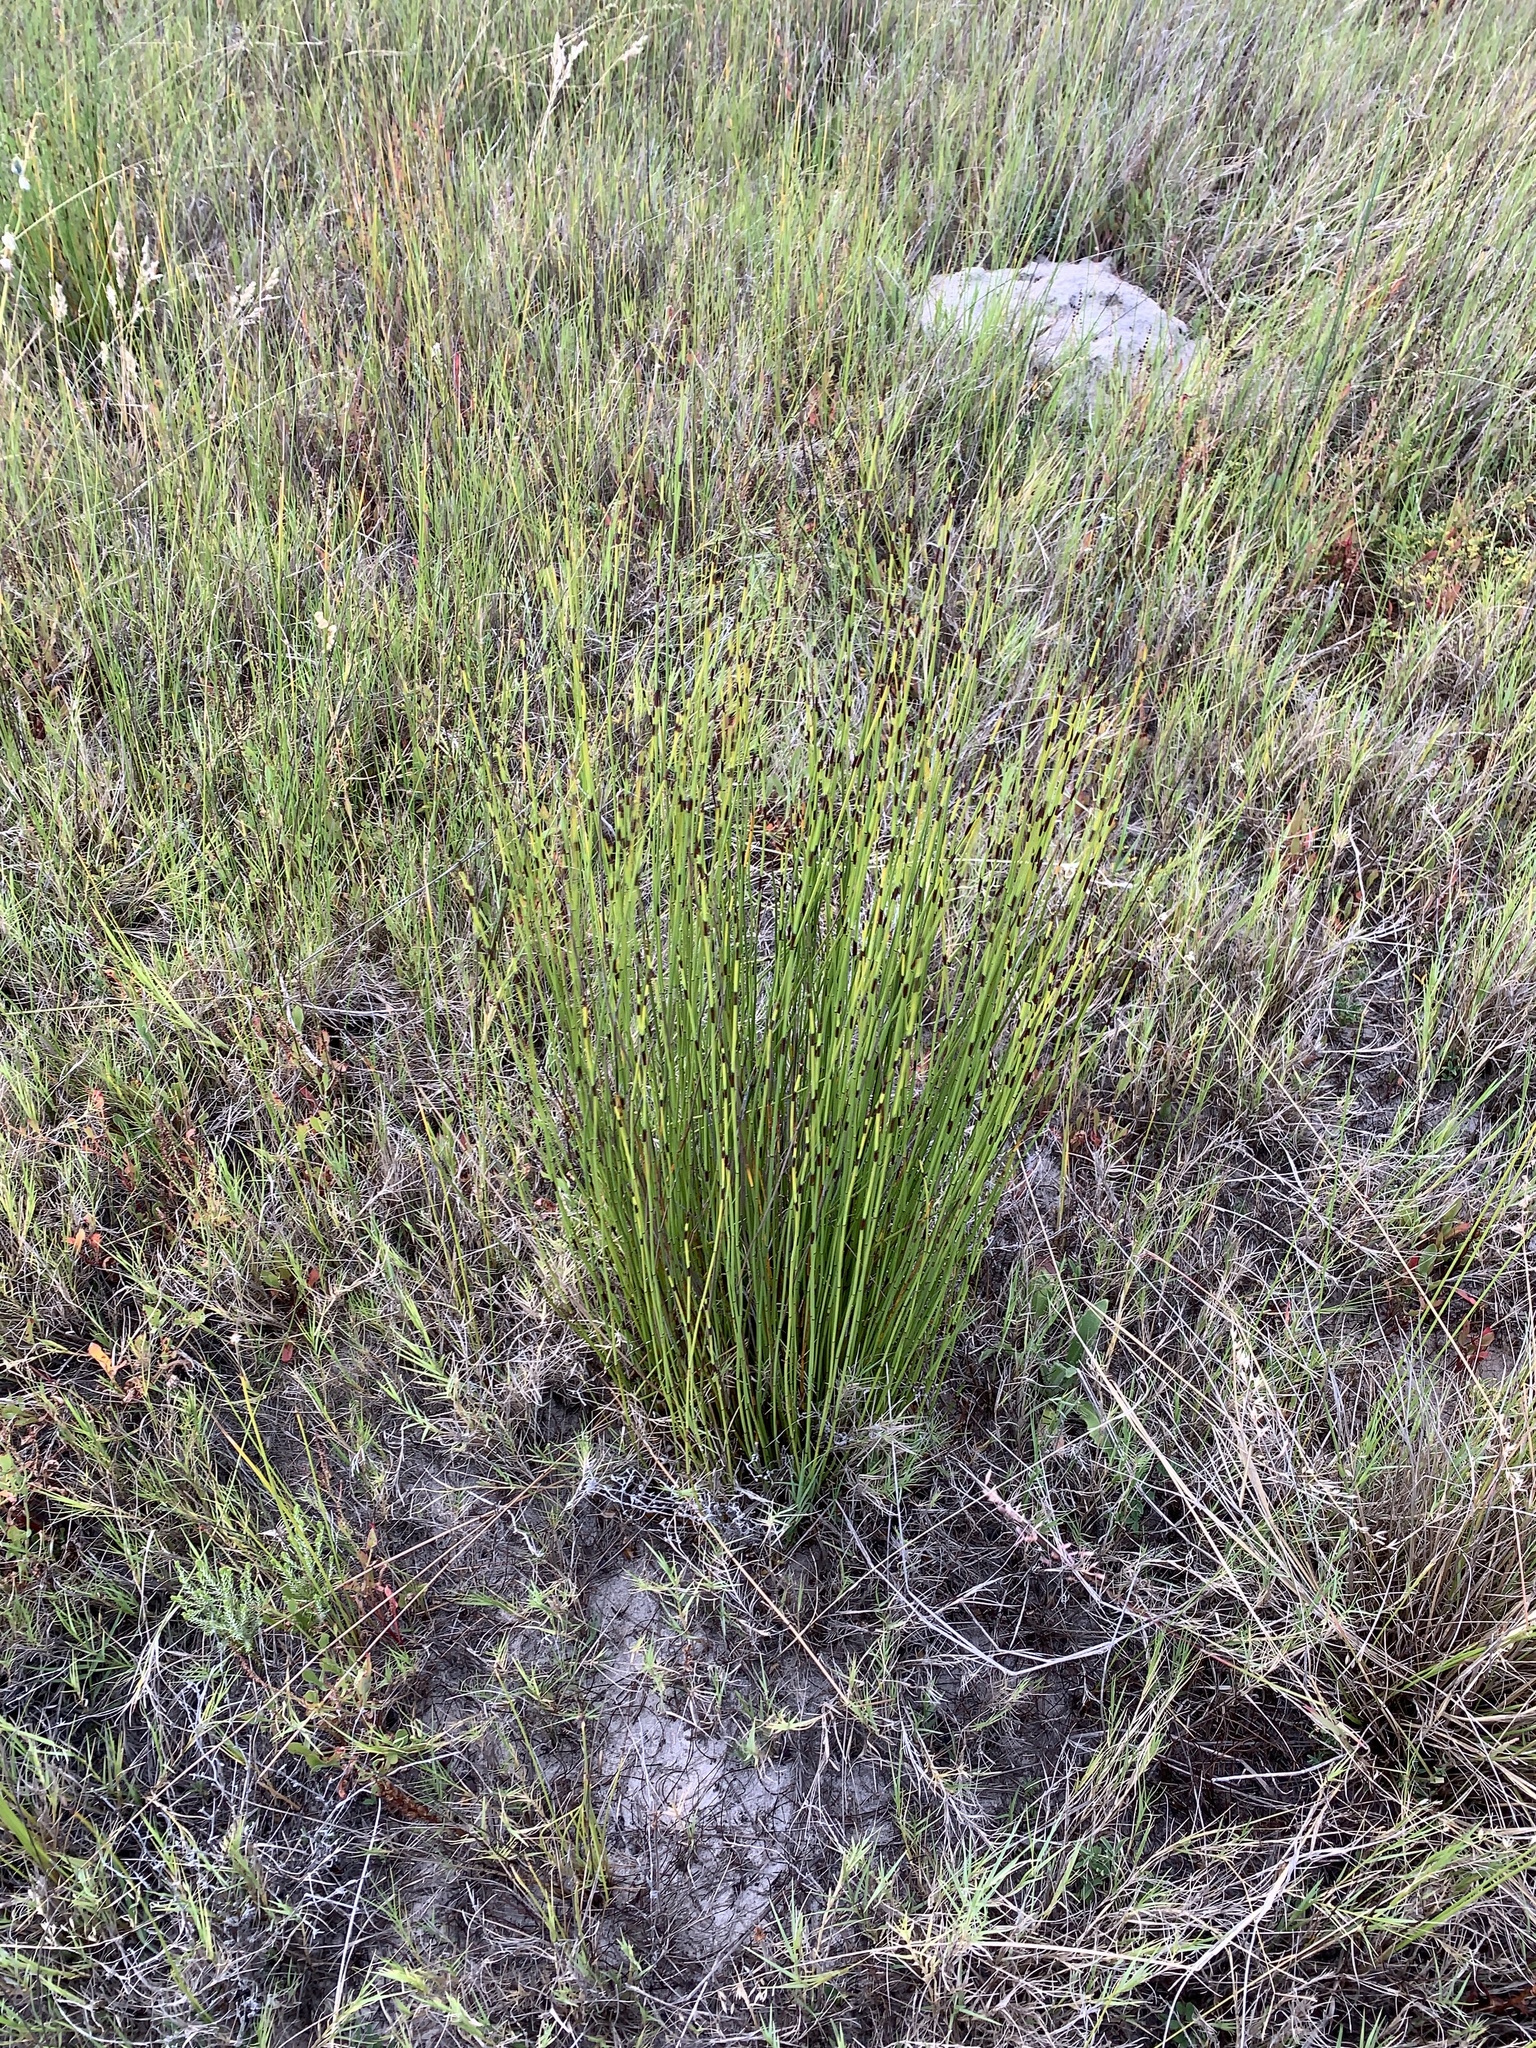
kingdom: Plantae
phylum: Tracheophyta
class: Liliopsida
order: Poales
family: Restionaceae
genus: Elegia
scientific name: Elegia nuda
